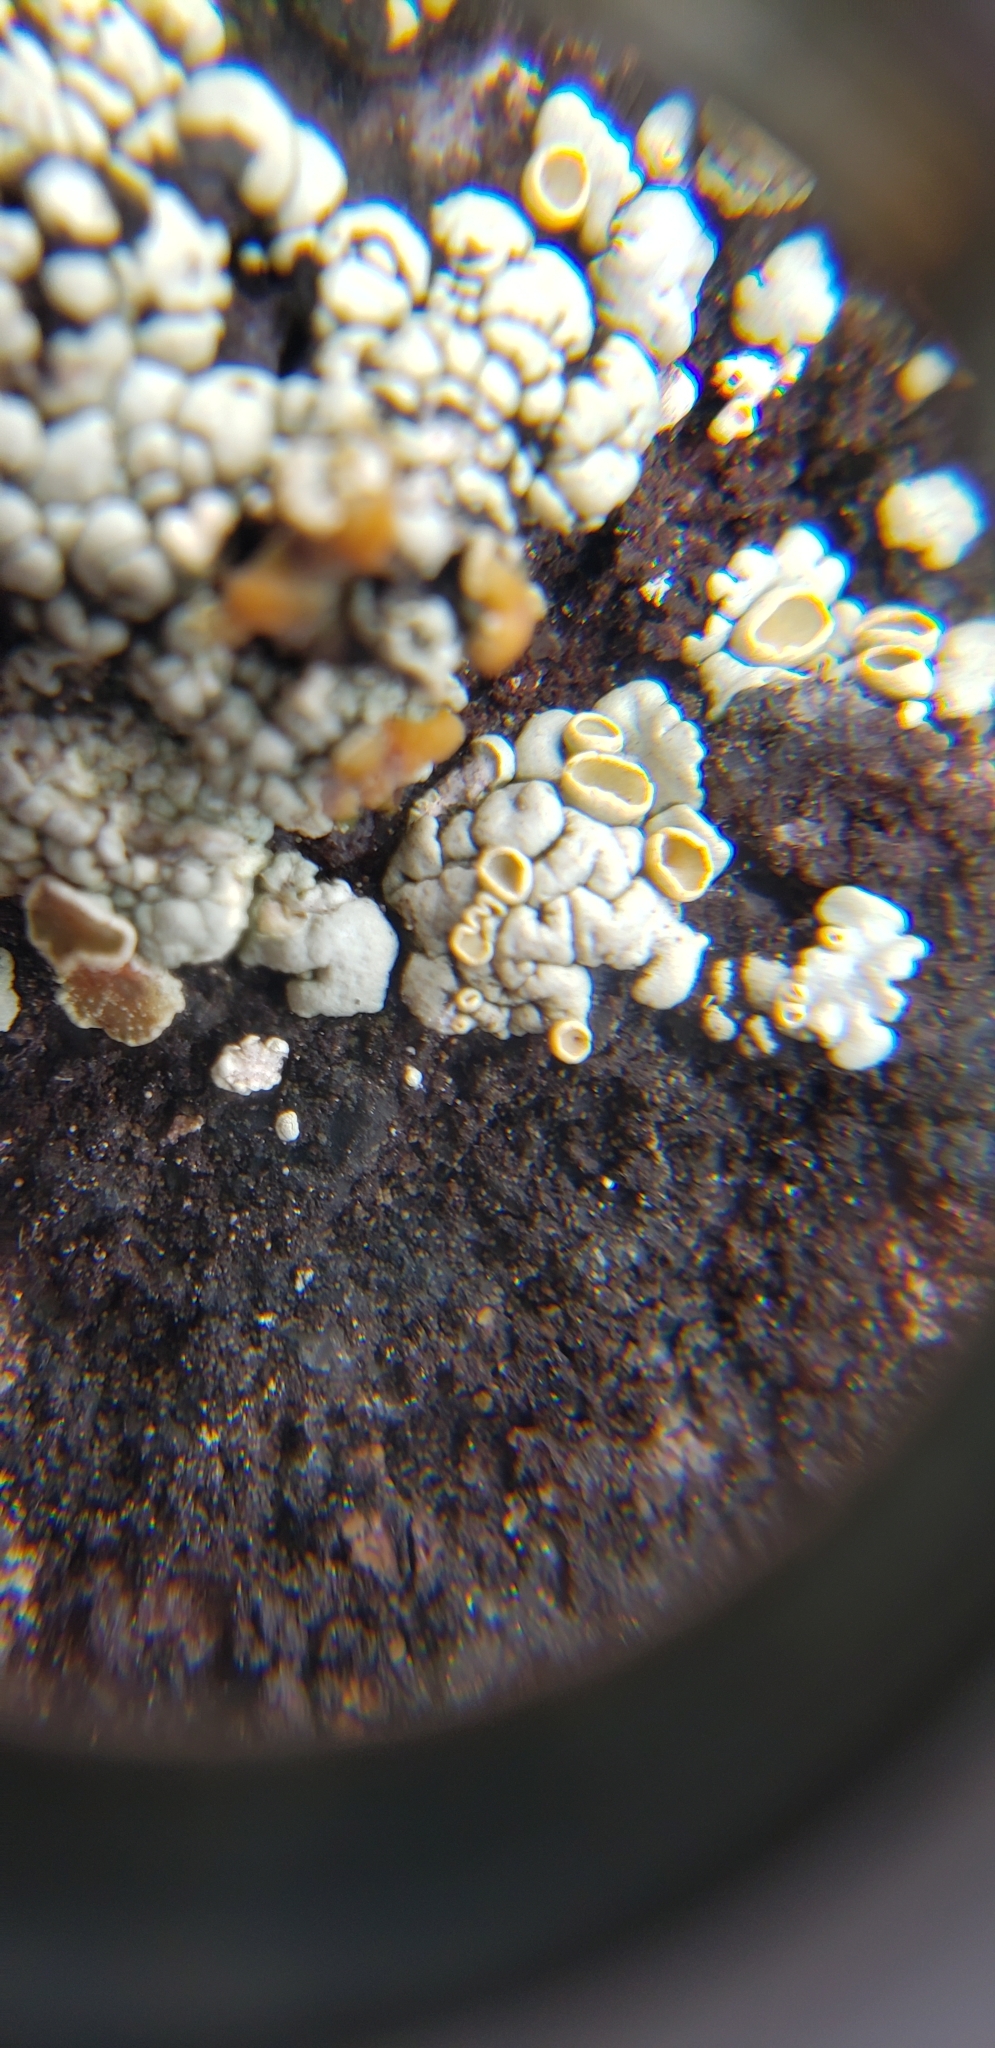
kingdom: Fungi
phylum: Ascomycota
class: Lecanoromycetes
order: Lecanorales
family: Lecanoraceae
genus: Sedelnikovaea
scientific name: Sedelnikovaea subdiscrepans
